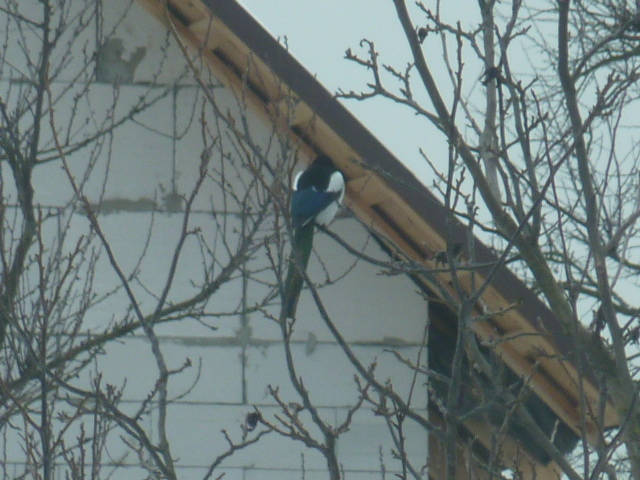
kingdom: Animalia
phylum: Chordata
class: Aves
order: Passeriformes
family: Corvidae
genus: Pica
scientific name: Pica pica
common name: Eurasian magpie
